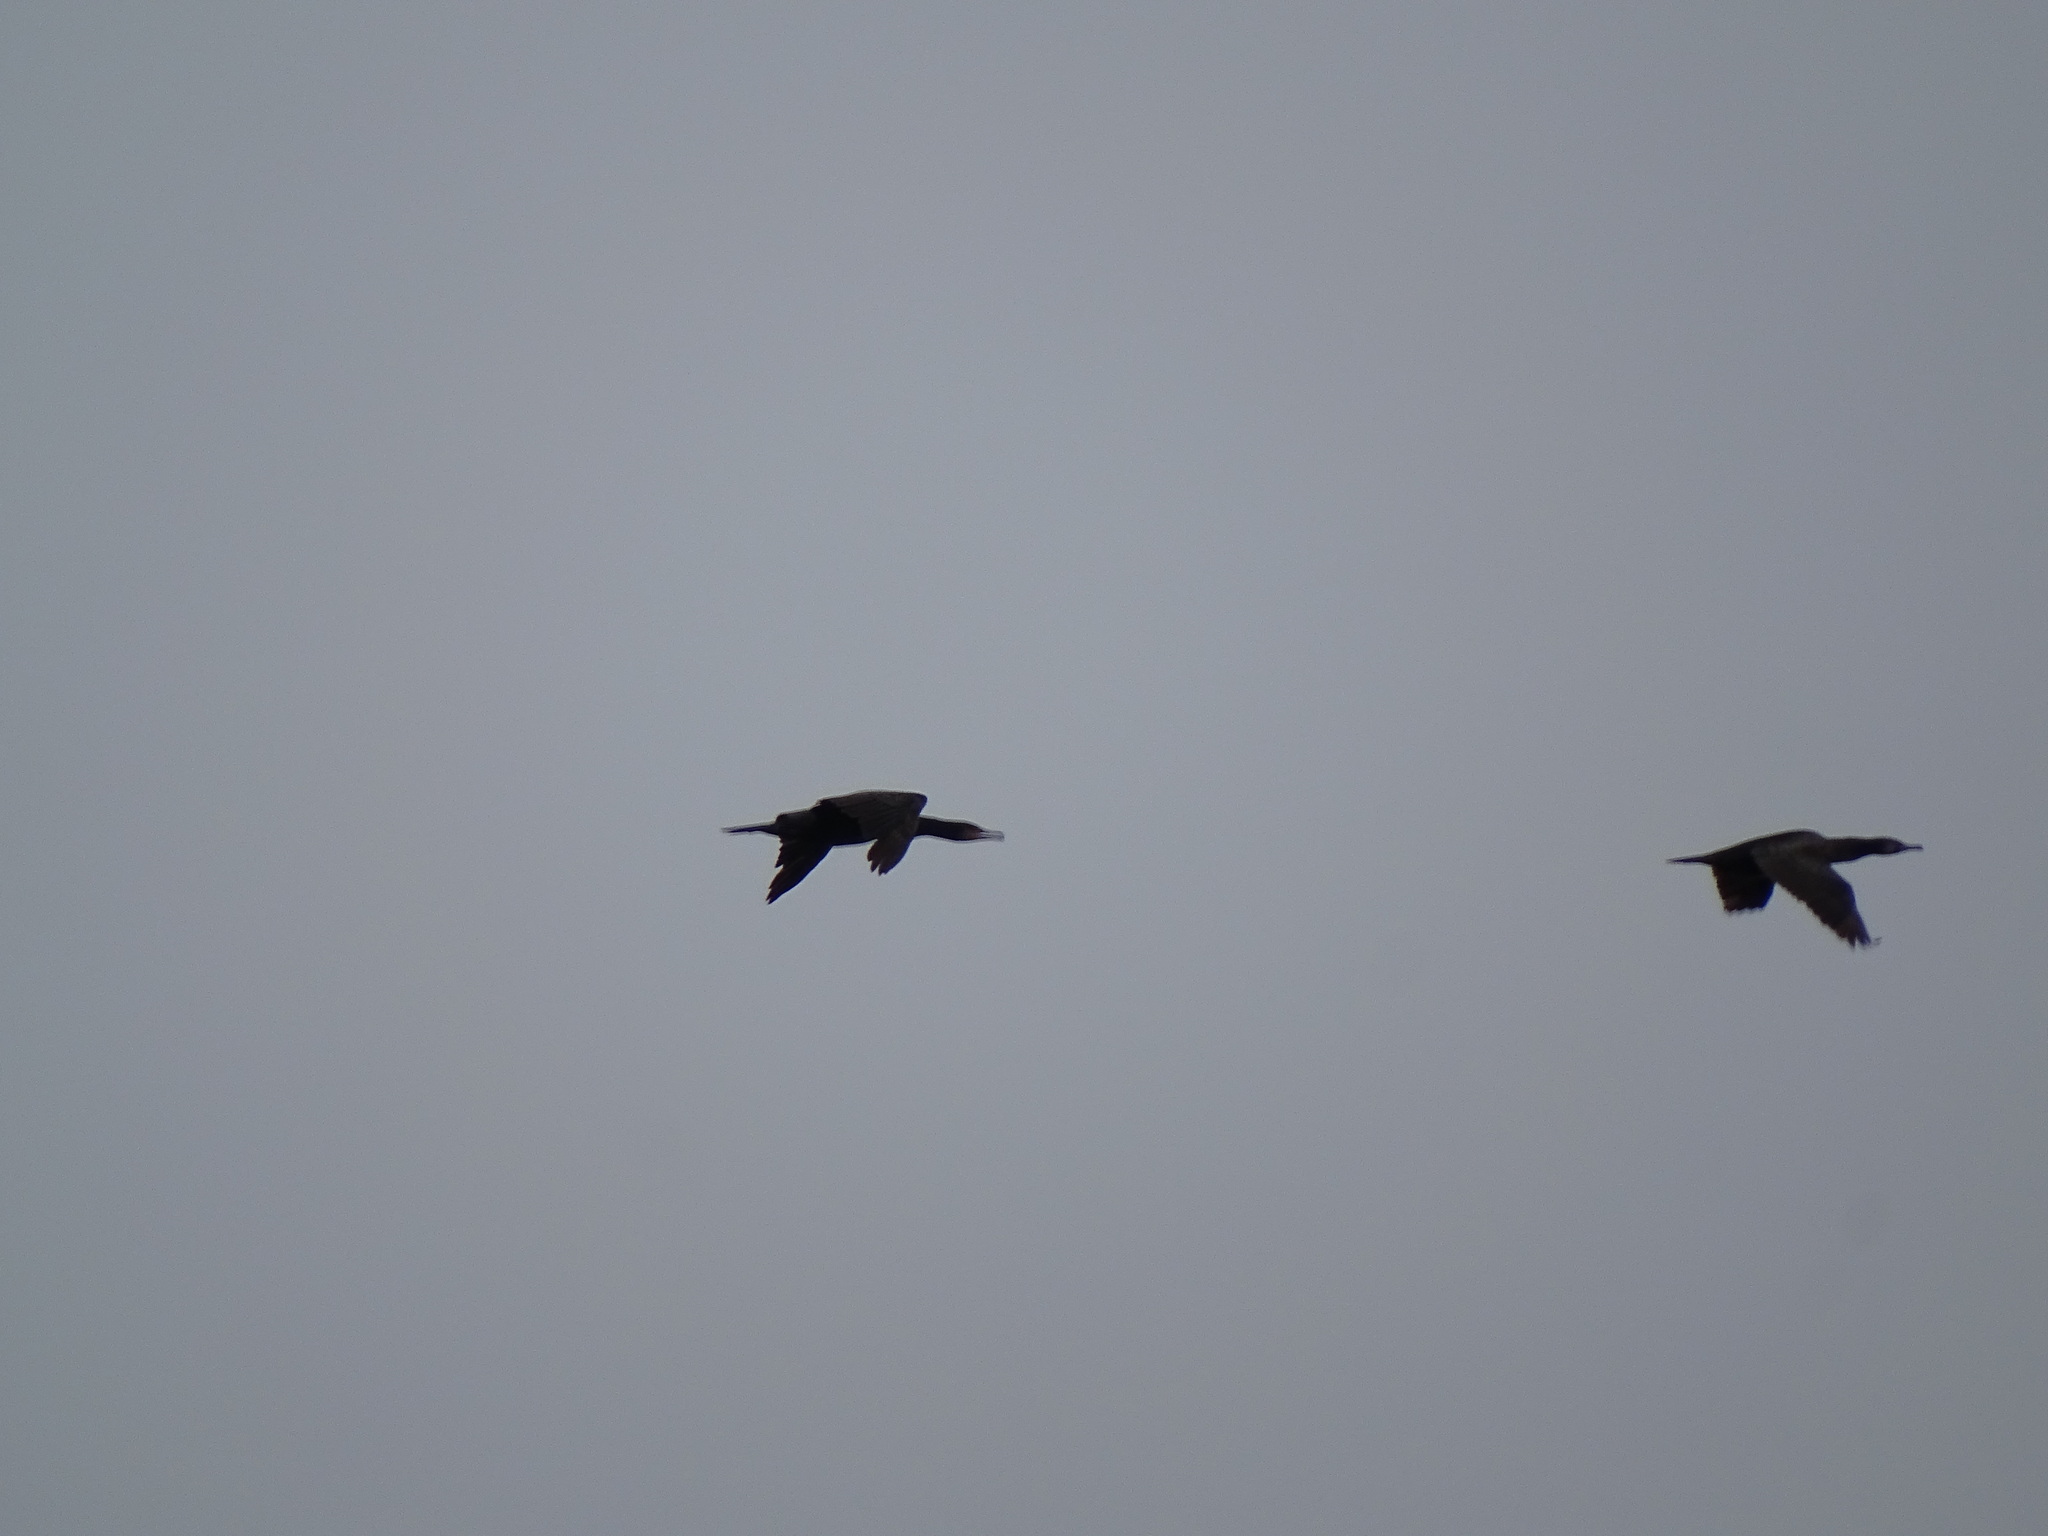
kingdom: Animalia
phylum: Chordata
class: Aves
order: Suliformes
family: Phalacrocoracidae
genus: Phalacrocorax
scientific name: Phalacrocorax carbo
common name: Great cormorant
